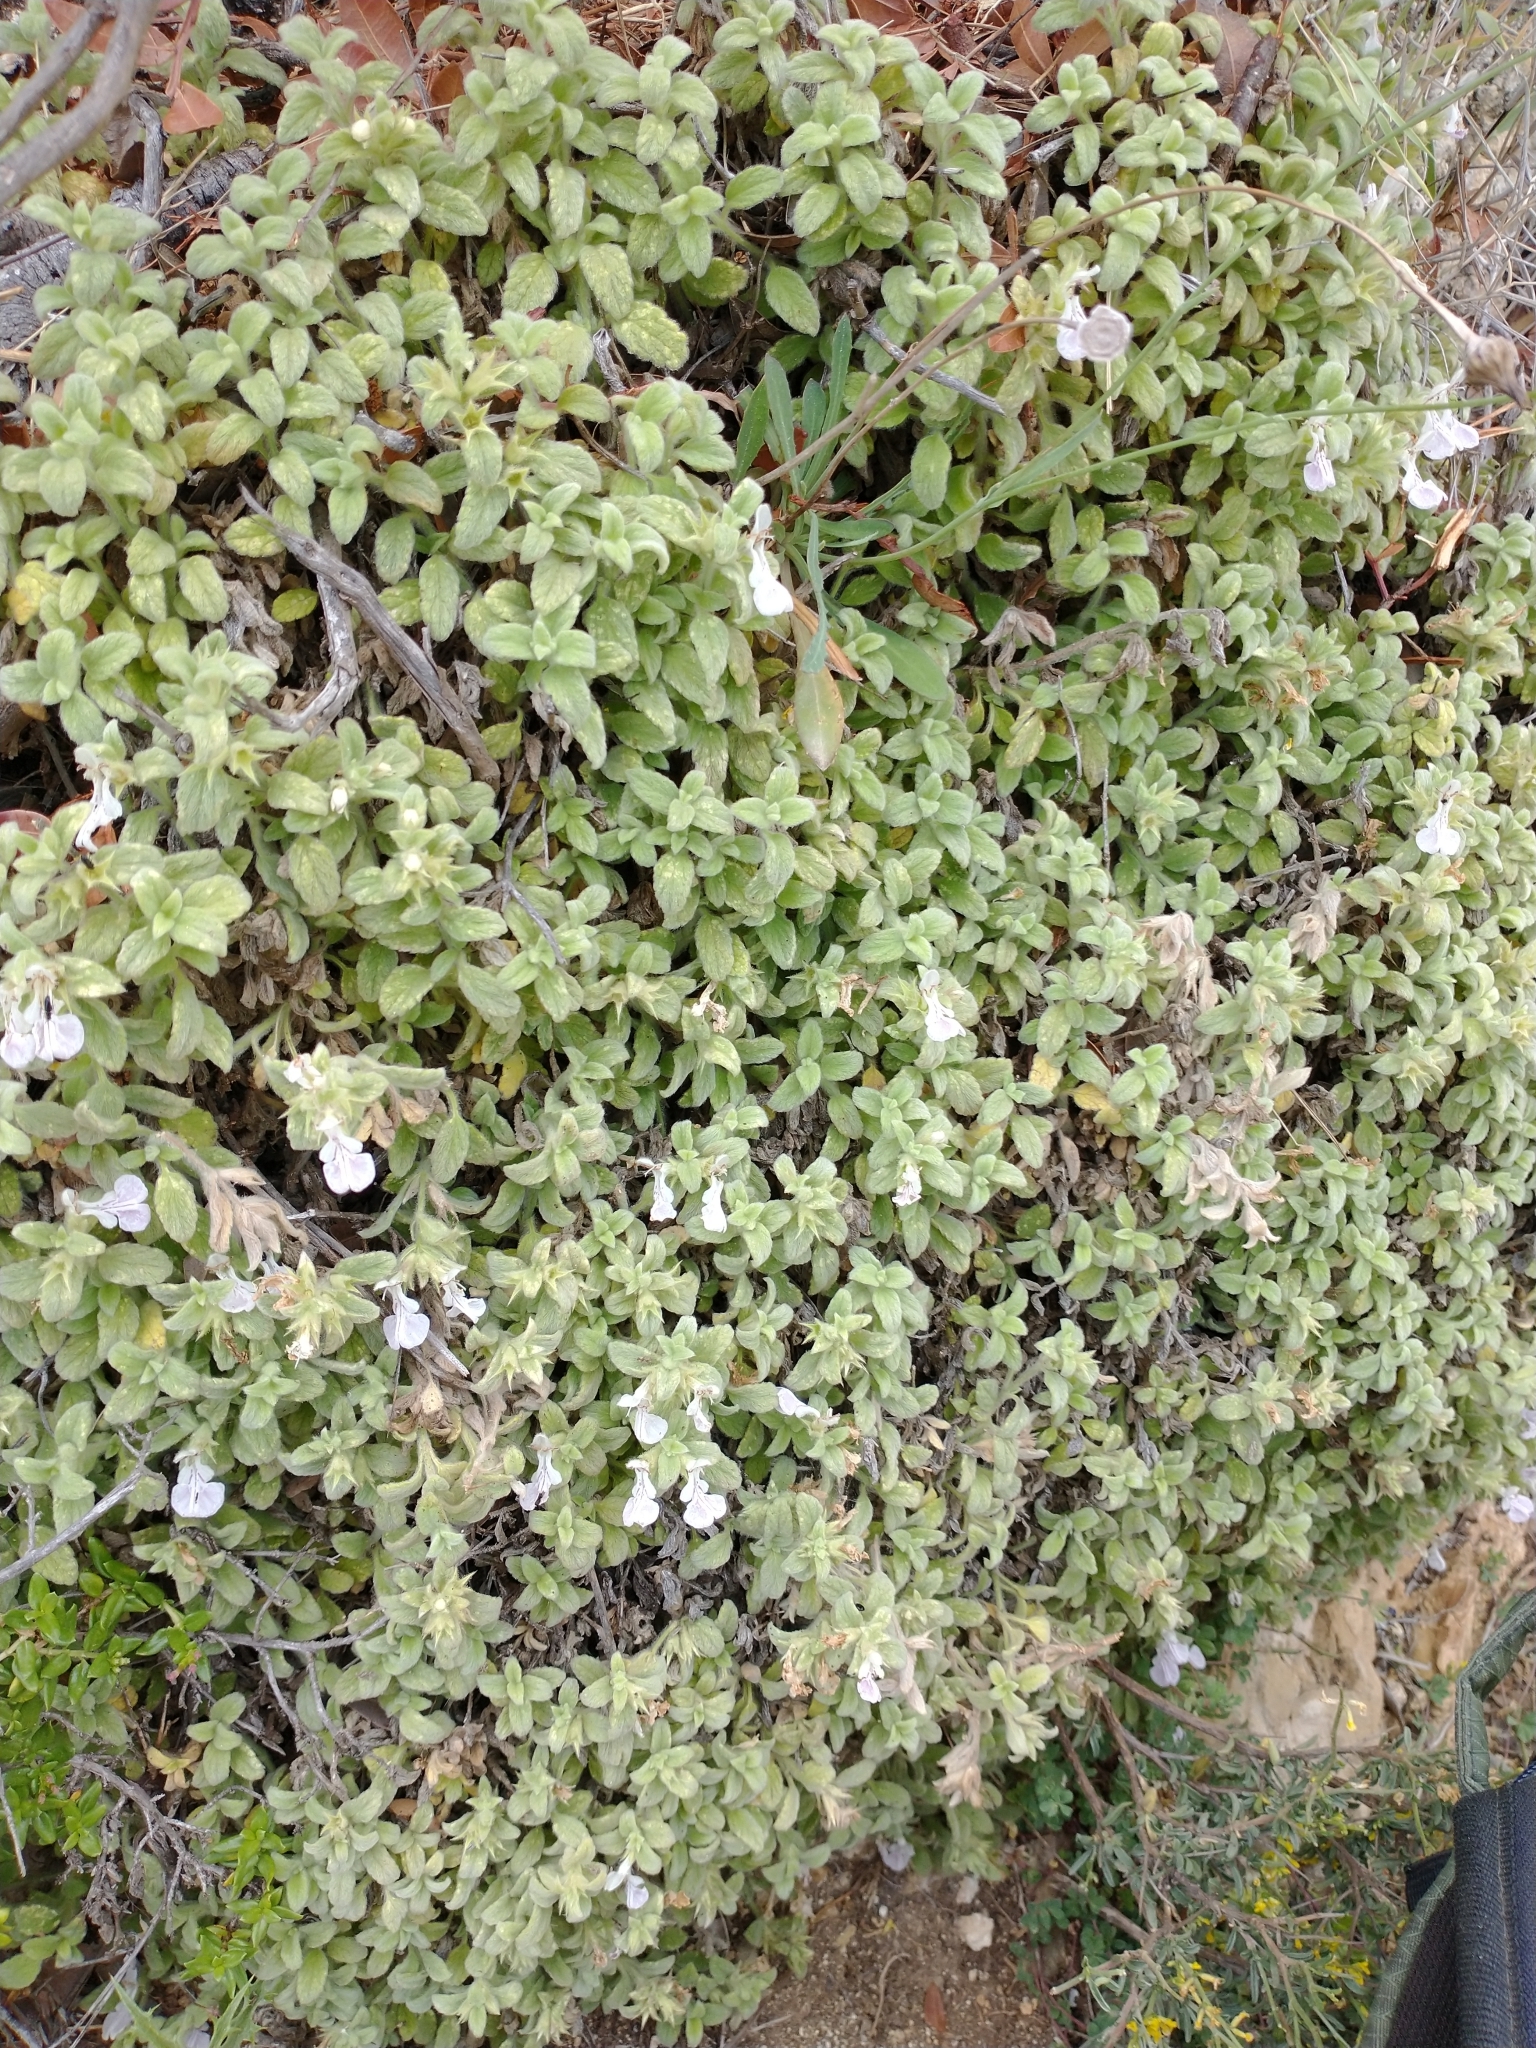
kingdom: Plantae
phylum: Tracheophyta
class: Magnoliopsida
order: Lamiales
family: Lamiaceae
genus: Stachys
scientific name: Stachys ionica
